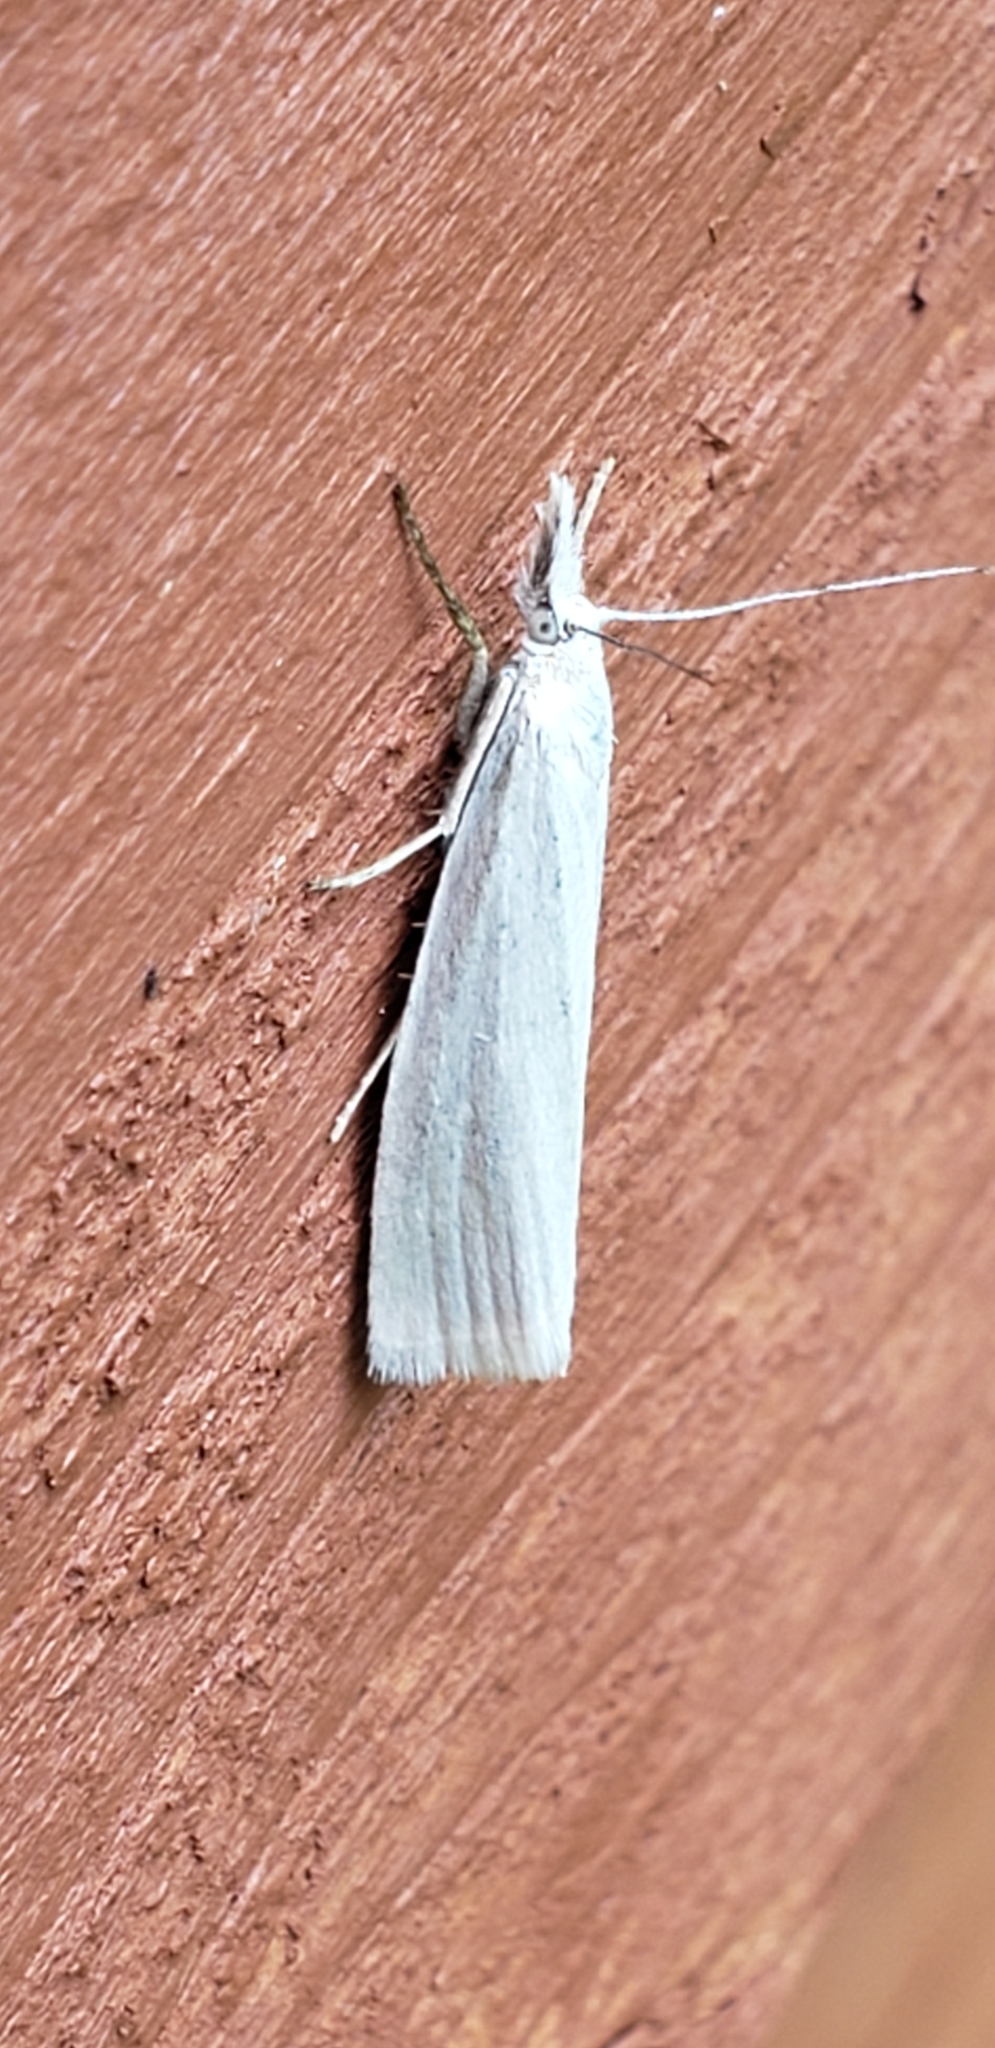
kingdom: Animalia
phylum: Arthropoda
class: Insecta
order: Lepidoptera
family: Crambidae
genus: Crambus
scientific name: Crambus perlellus
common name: Yellow satin veneer
